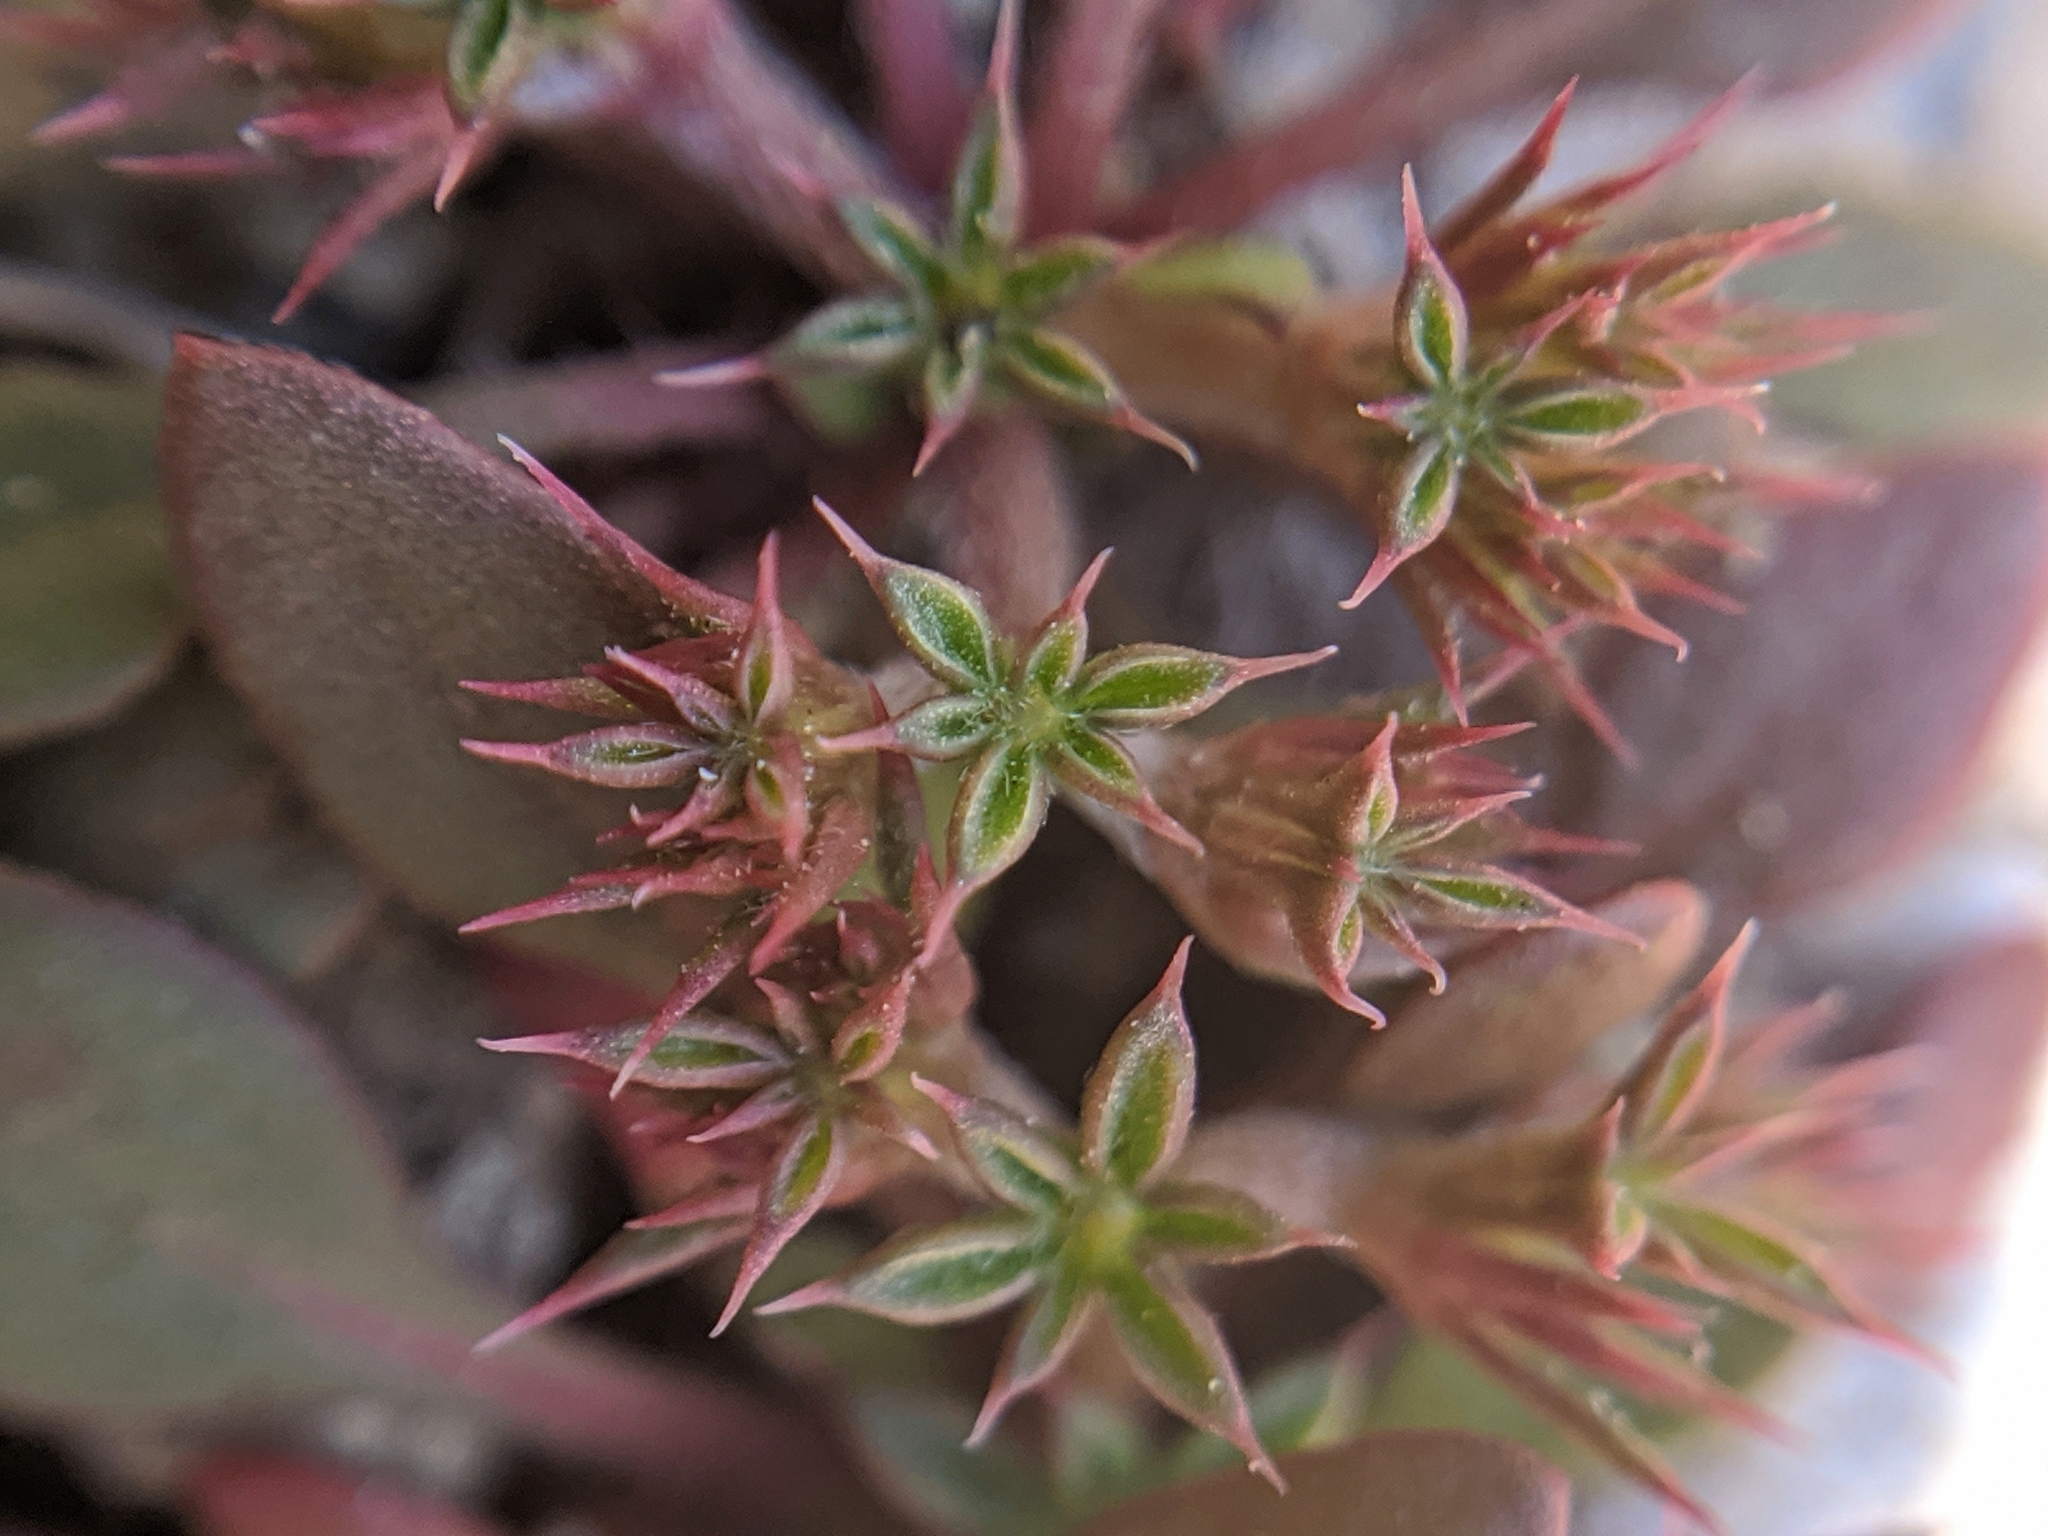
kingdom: Plantae
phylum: Tracheophyta
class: Magnoliopsida
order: Caryophyllales
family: Polygonaceae
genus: Chorizanthe
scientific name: Chorizanthe aphanantha
